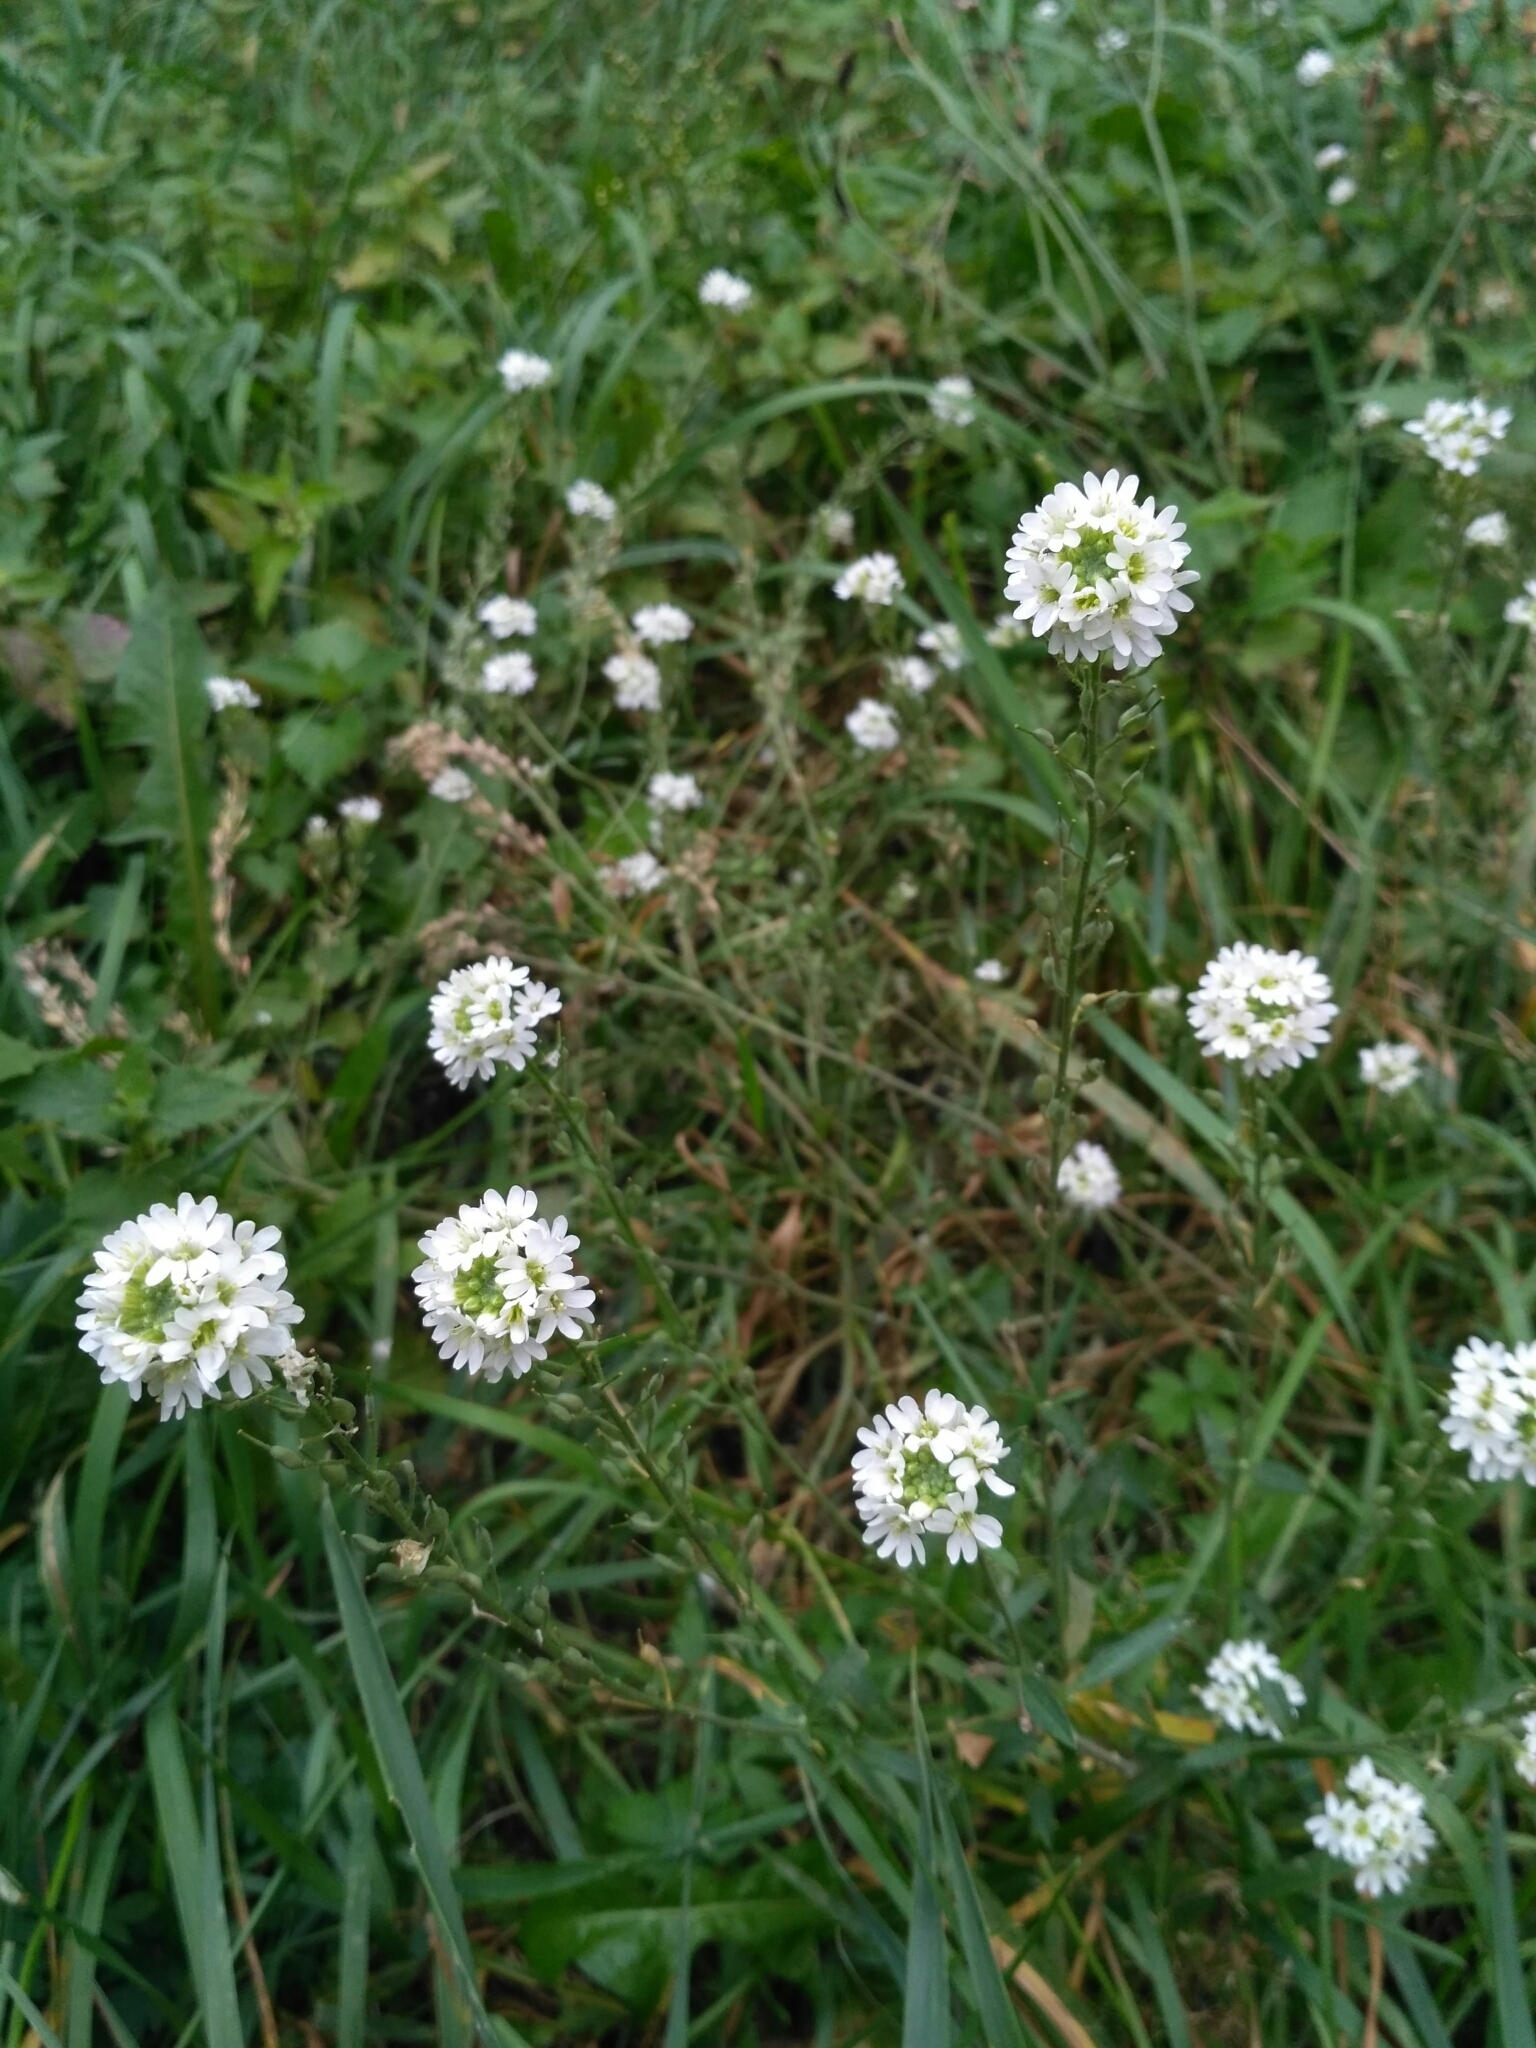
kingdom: Plantae
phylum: Tracheophyta
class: Magnoliopsida
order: Brassicales
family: Brassicaceae
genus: Berteroa
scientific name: Berteroa incana
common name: Hoary alison
